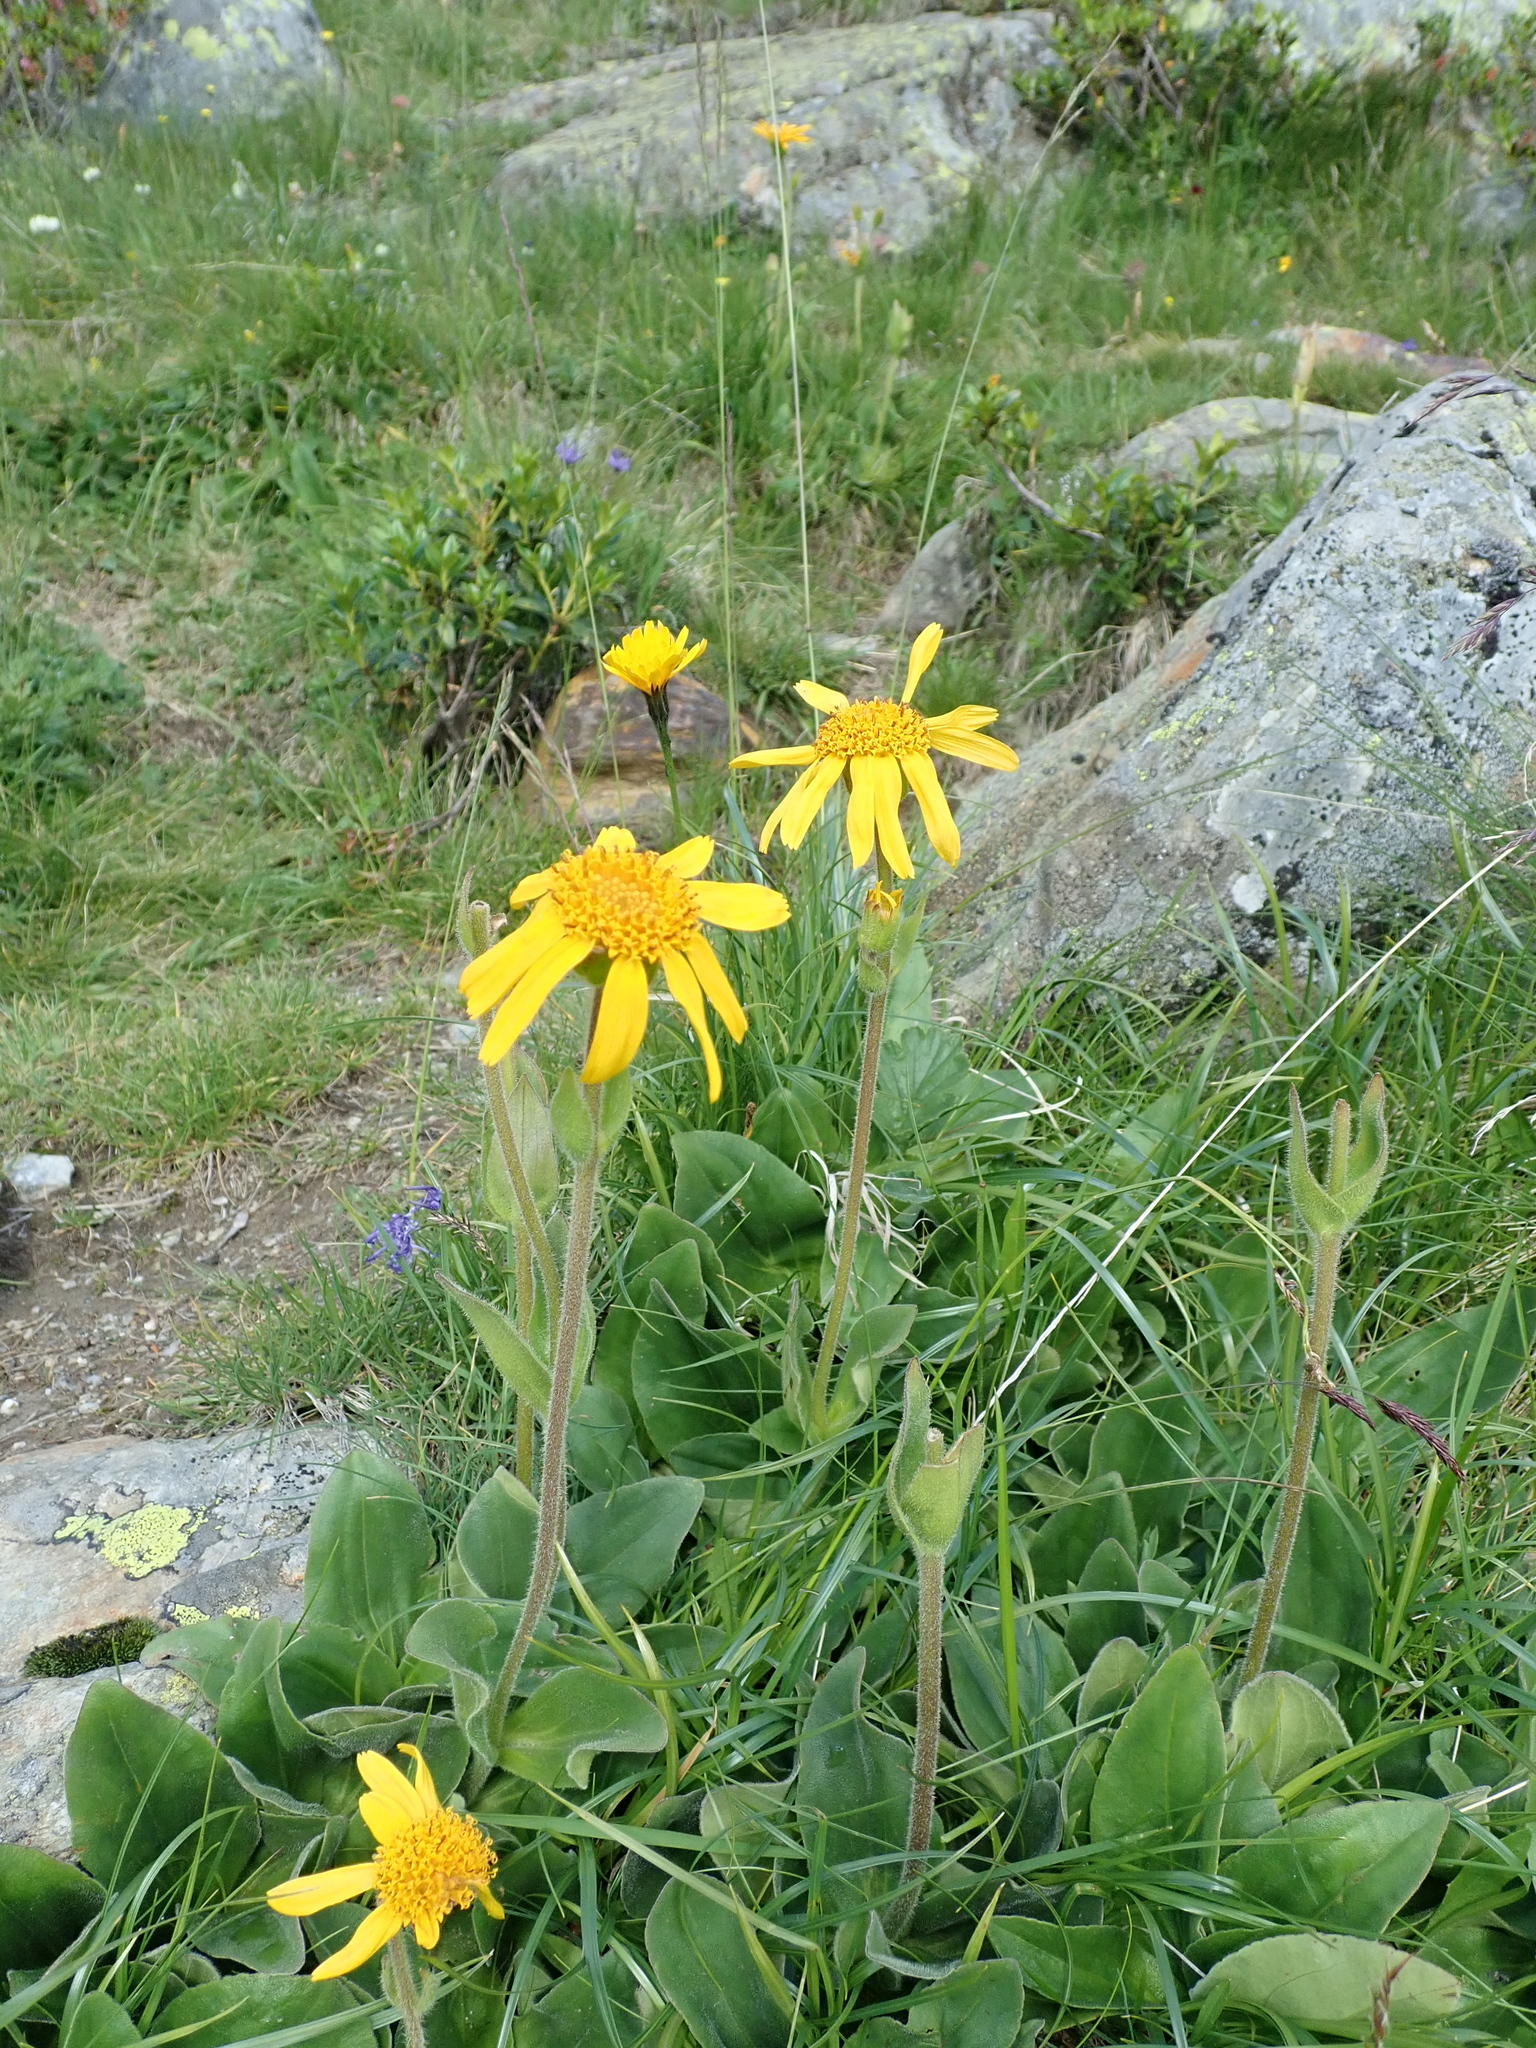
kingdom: Plantae
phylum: Tracheophyta
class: Magnoliopsida
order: Asterales
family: Asteraceae
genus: Arnica
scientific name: Arnica montana
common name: Leopard's bane
